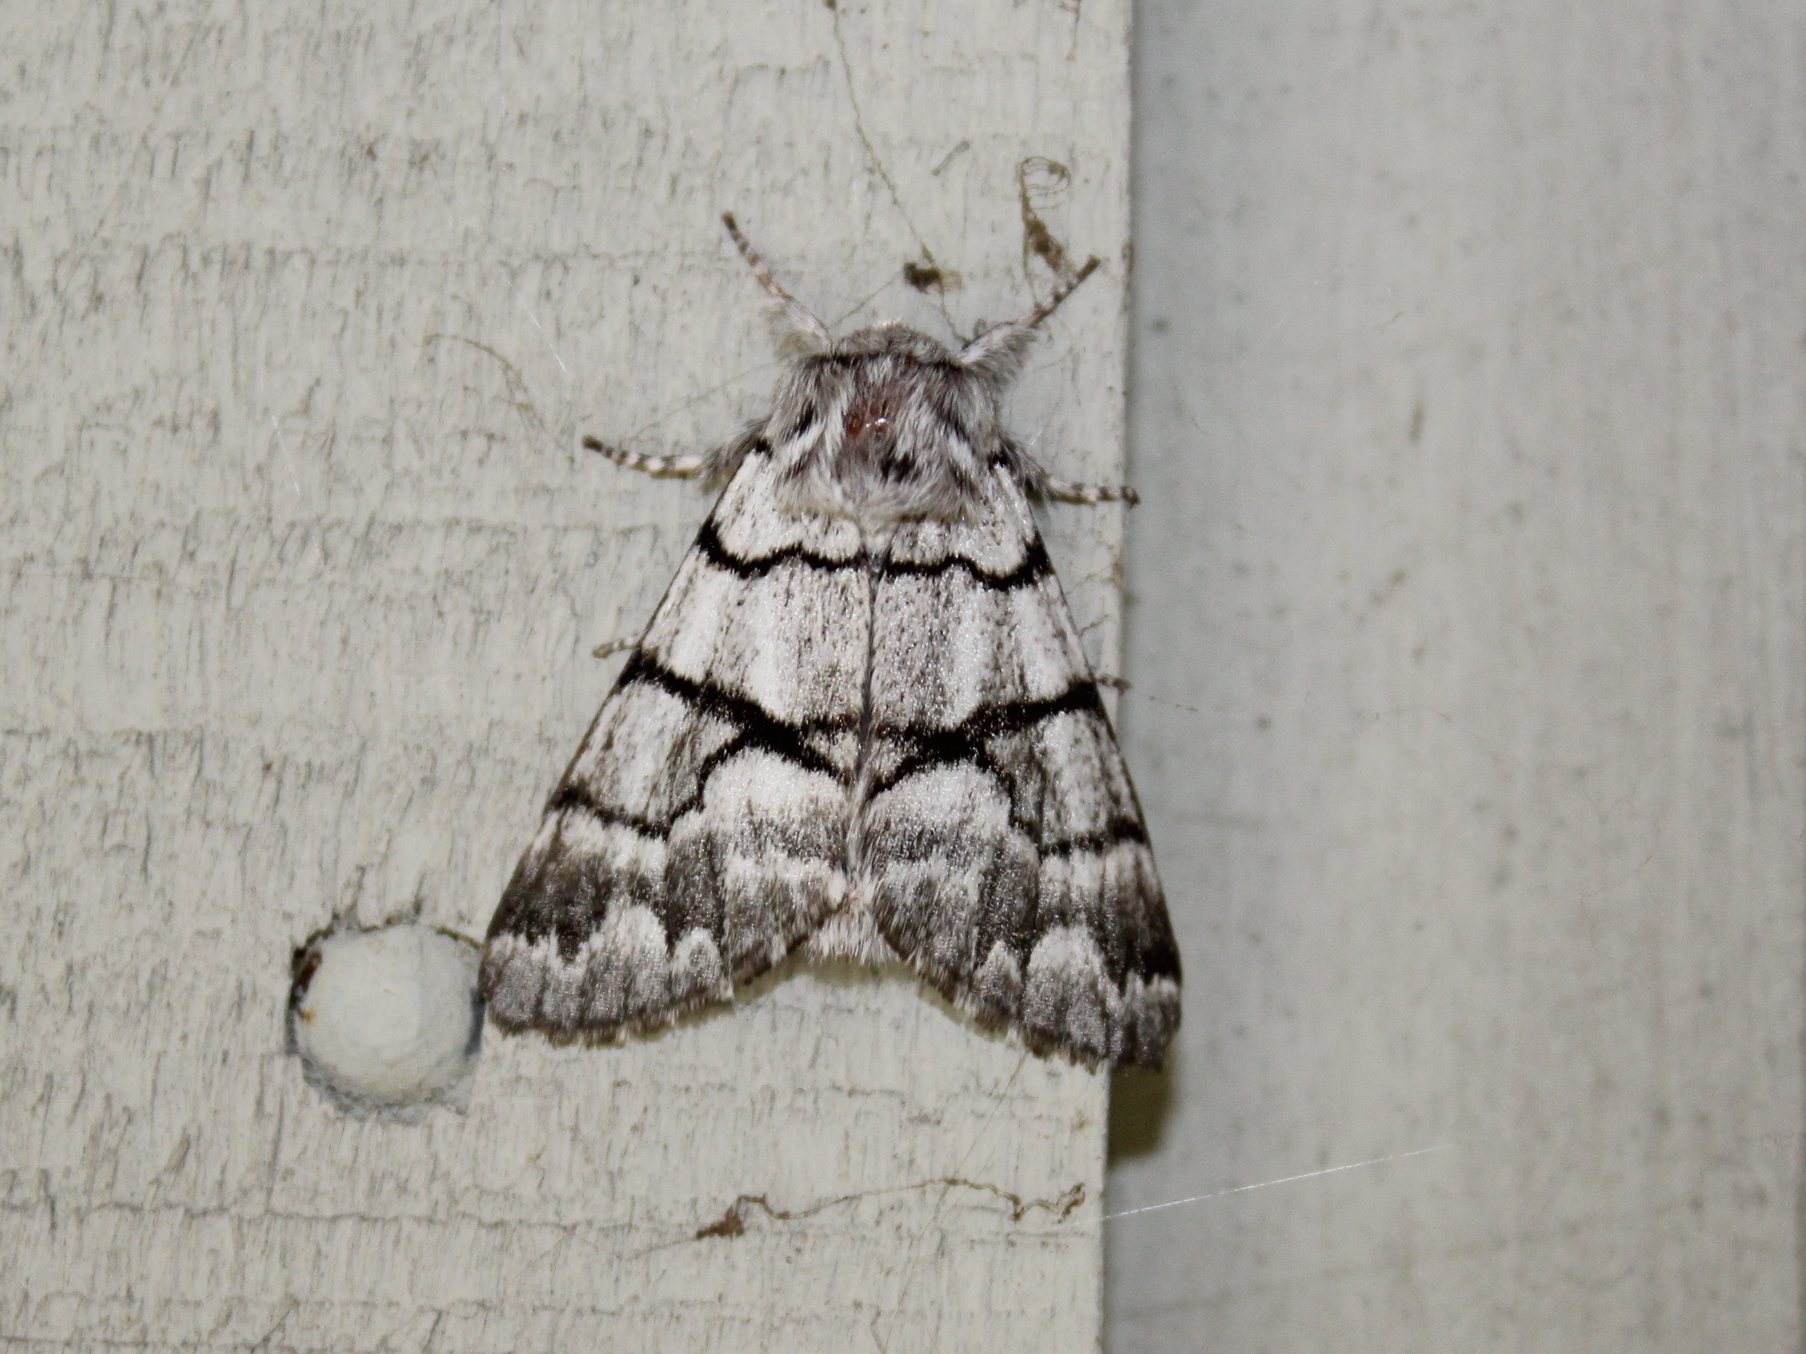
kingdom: Animalia
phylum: Arthropoda
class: Insecta
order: Lepidoptera
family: Noctuidae
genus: Panthea
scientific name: Panthea furcilla
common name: Eastern panthea moth
